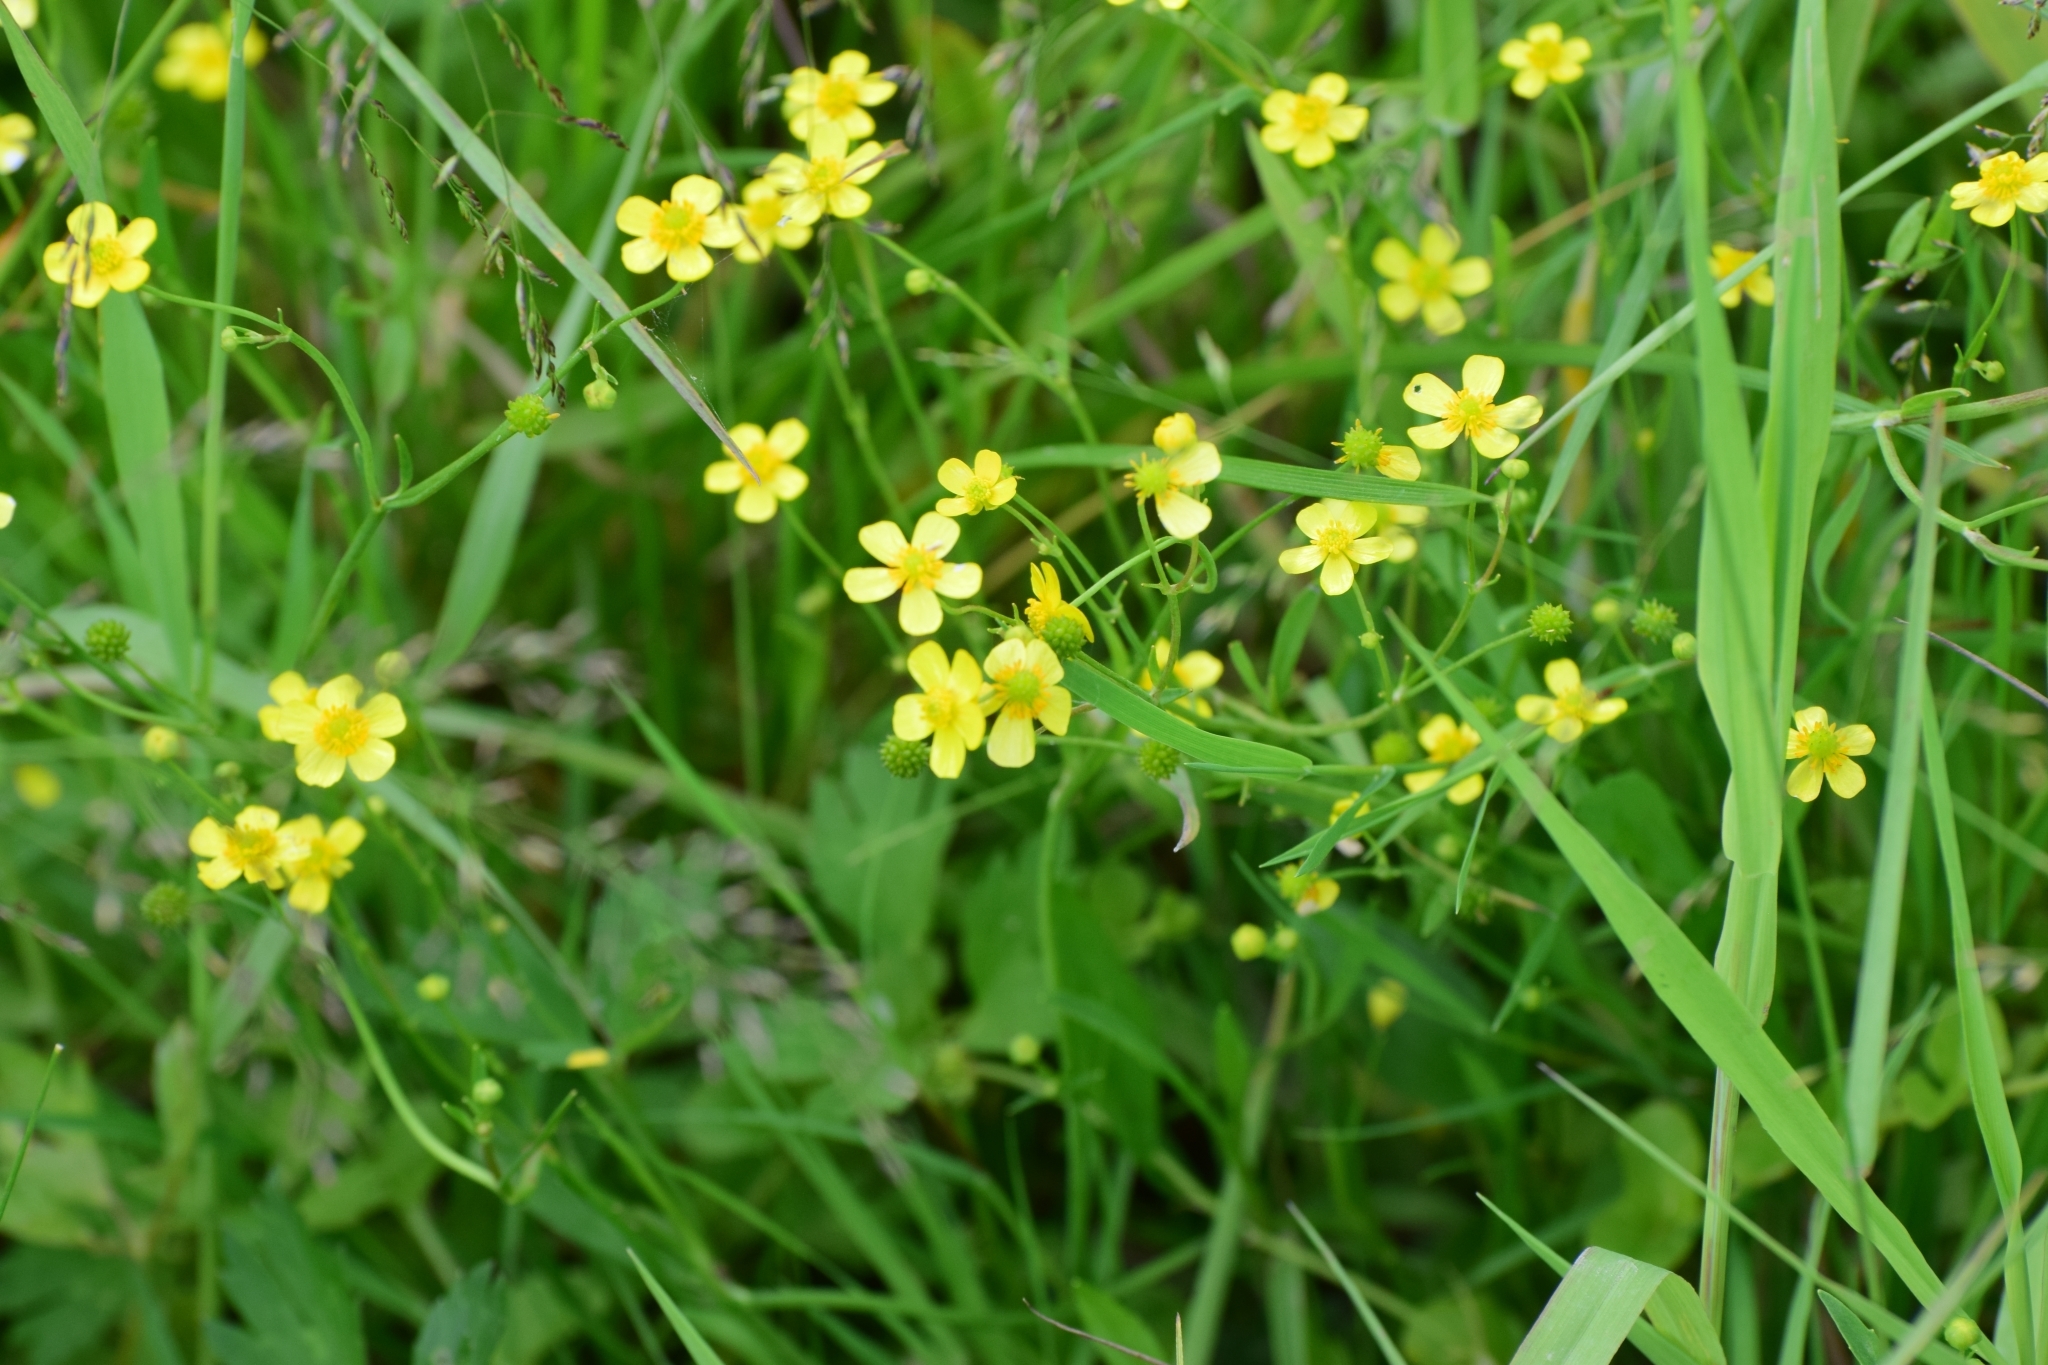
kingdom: Plantae
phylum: Tracheophyta
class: Magnoliopsida
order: Ranunculales
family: Ranunculaceae
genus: Ranunculus
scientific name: Ranunculus flammula
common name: Lesser spearwort
